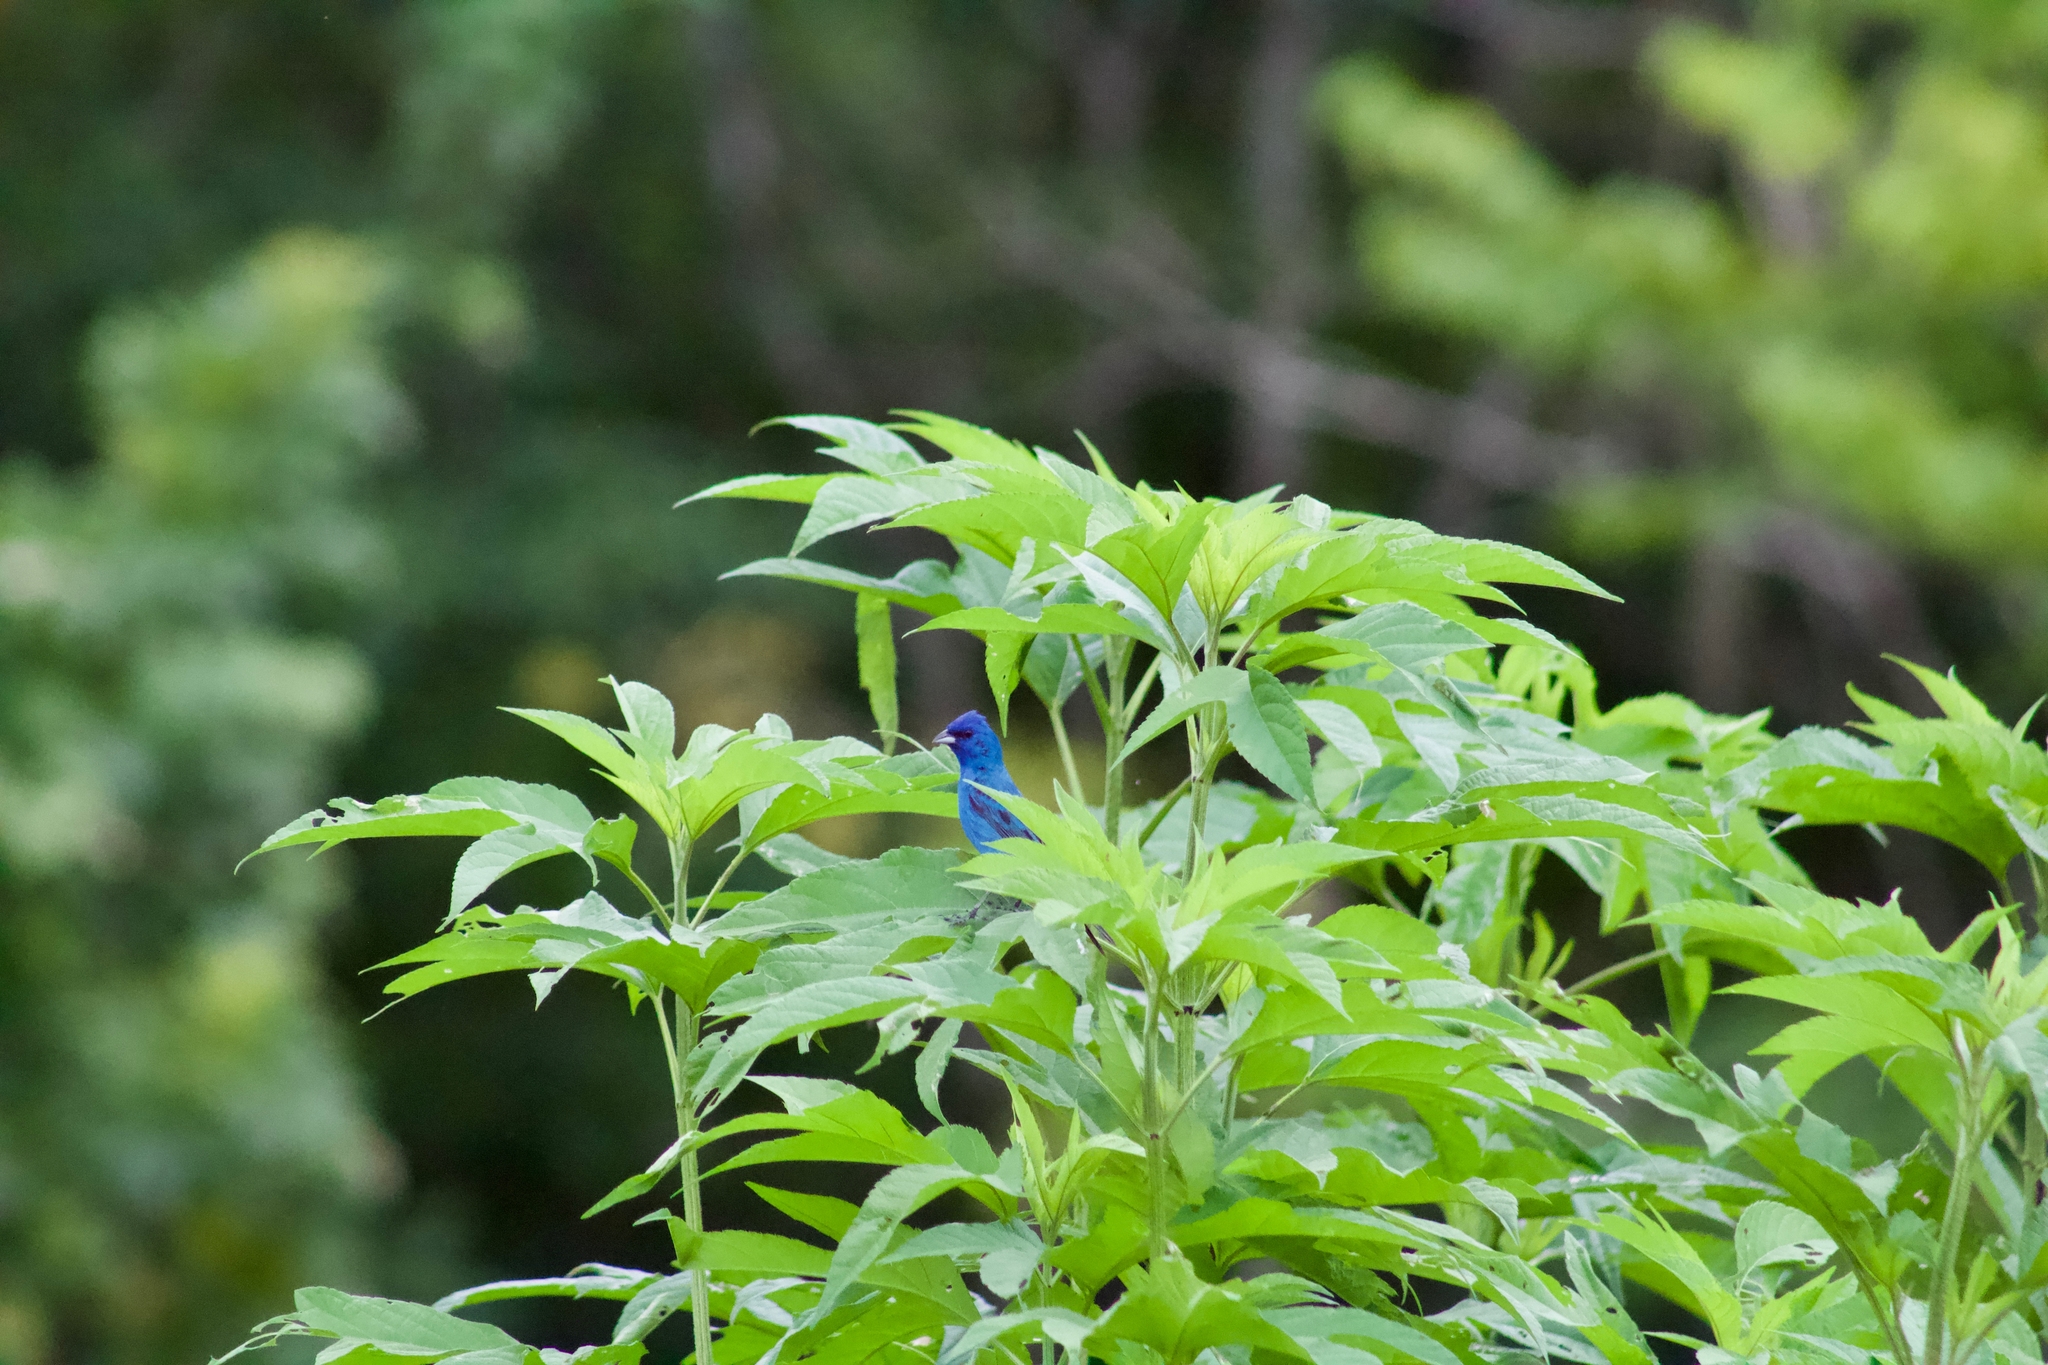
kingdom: Animalia
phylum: Chordata
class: Aves
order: Passeriformes
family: Cardinalidae
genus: Passerina
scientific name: Passerina cyanea
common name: Indigo bunting
